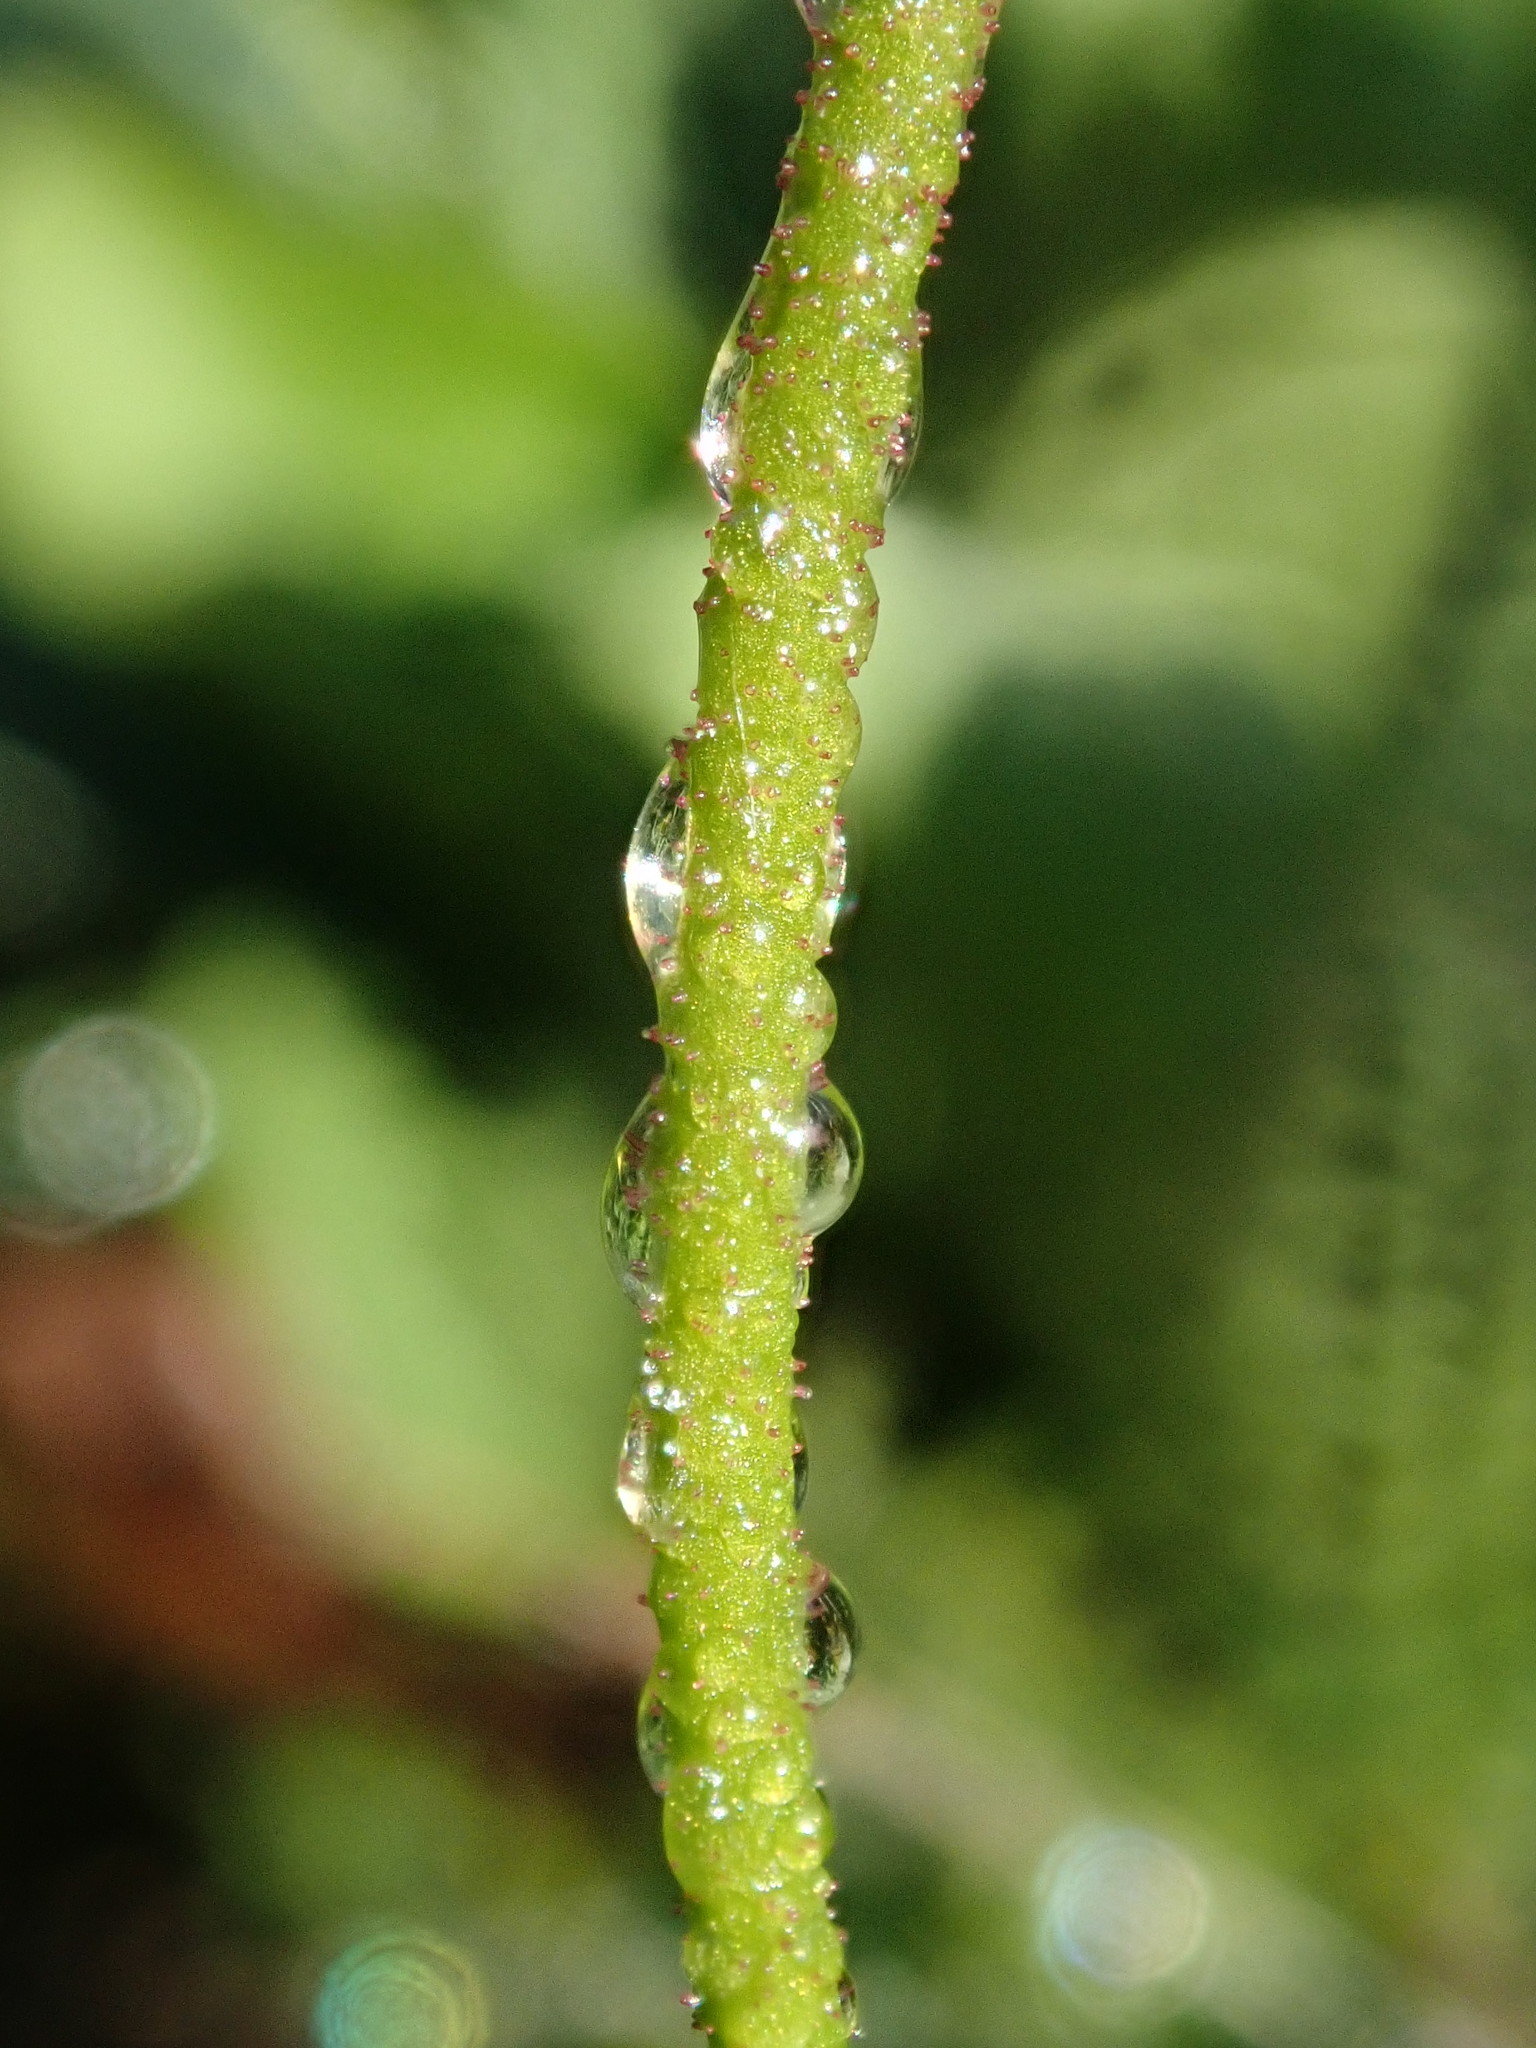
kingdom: Plantae
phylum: Tracheophyta
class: Liliopsida
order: Alismatales
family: Tofieldiaceae
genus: Triantha
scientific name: Triantha occidentalis
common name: Western false asphodel
